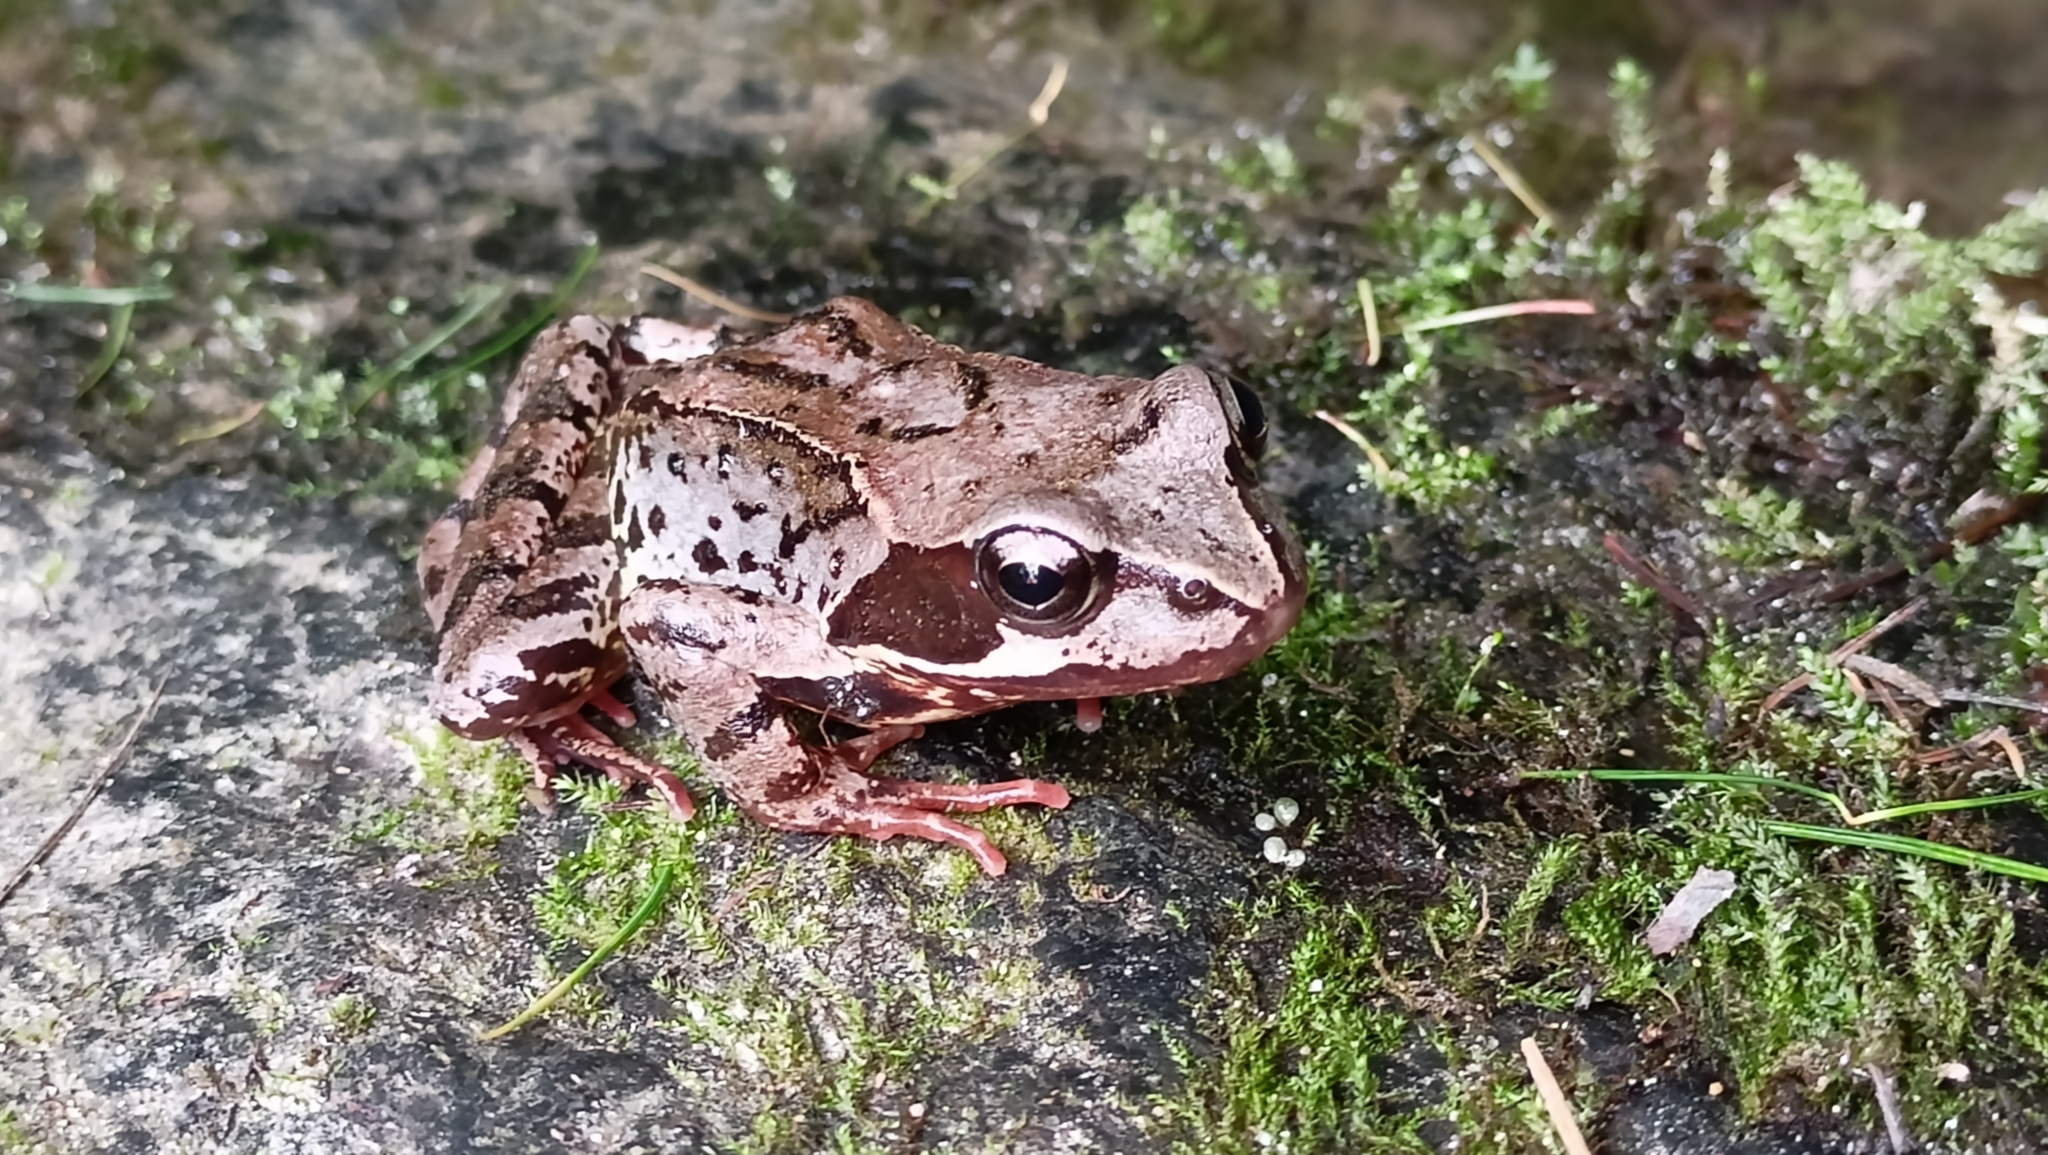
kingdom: Animalia
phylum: Chordata
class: Amphibia
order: Anura
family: Ranidae
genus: Rana
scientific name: Rana temporaria
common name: Common frog
